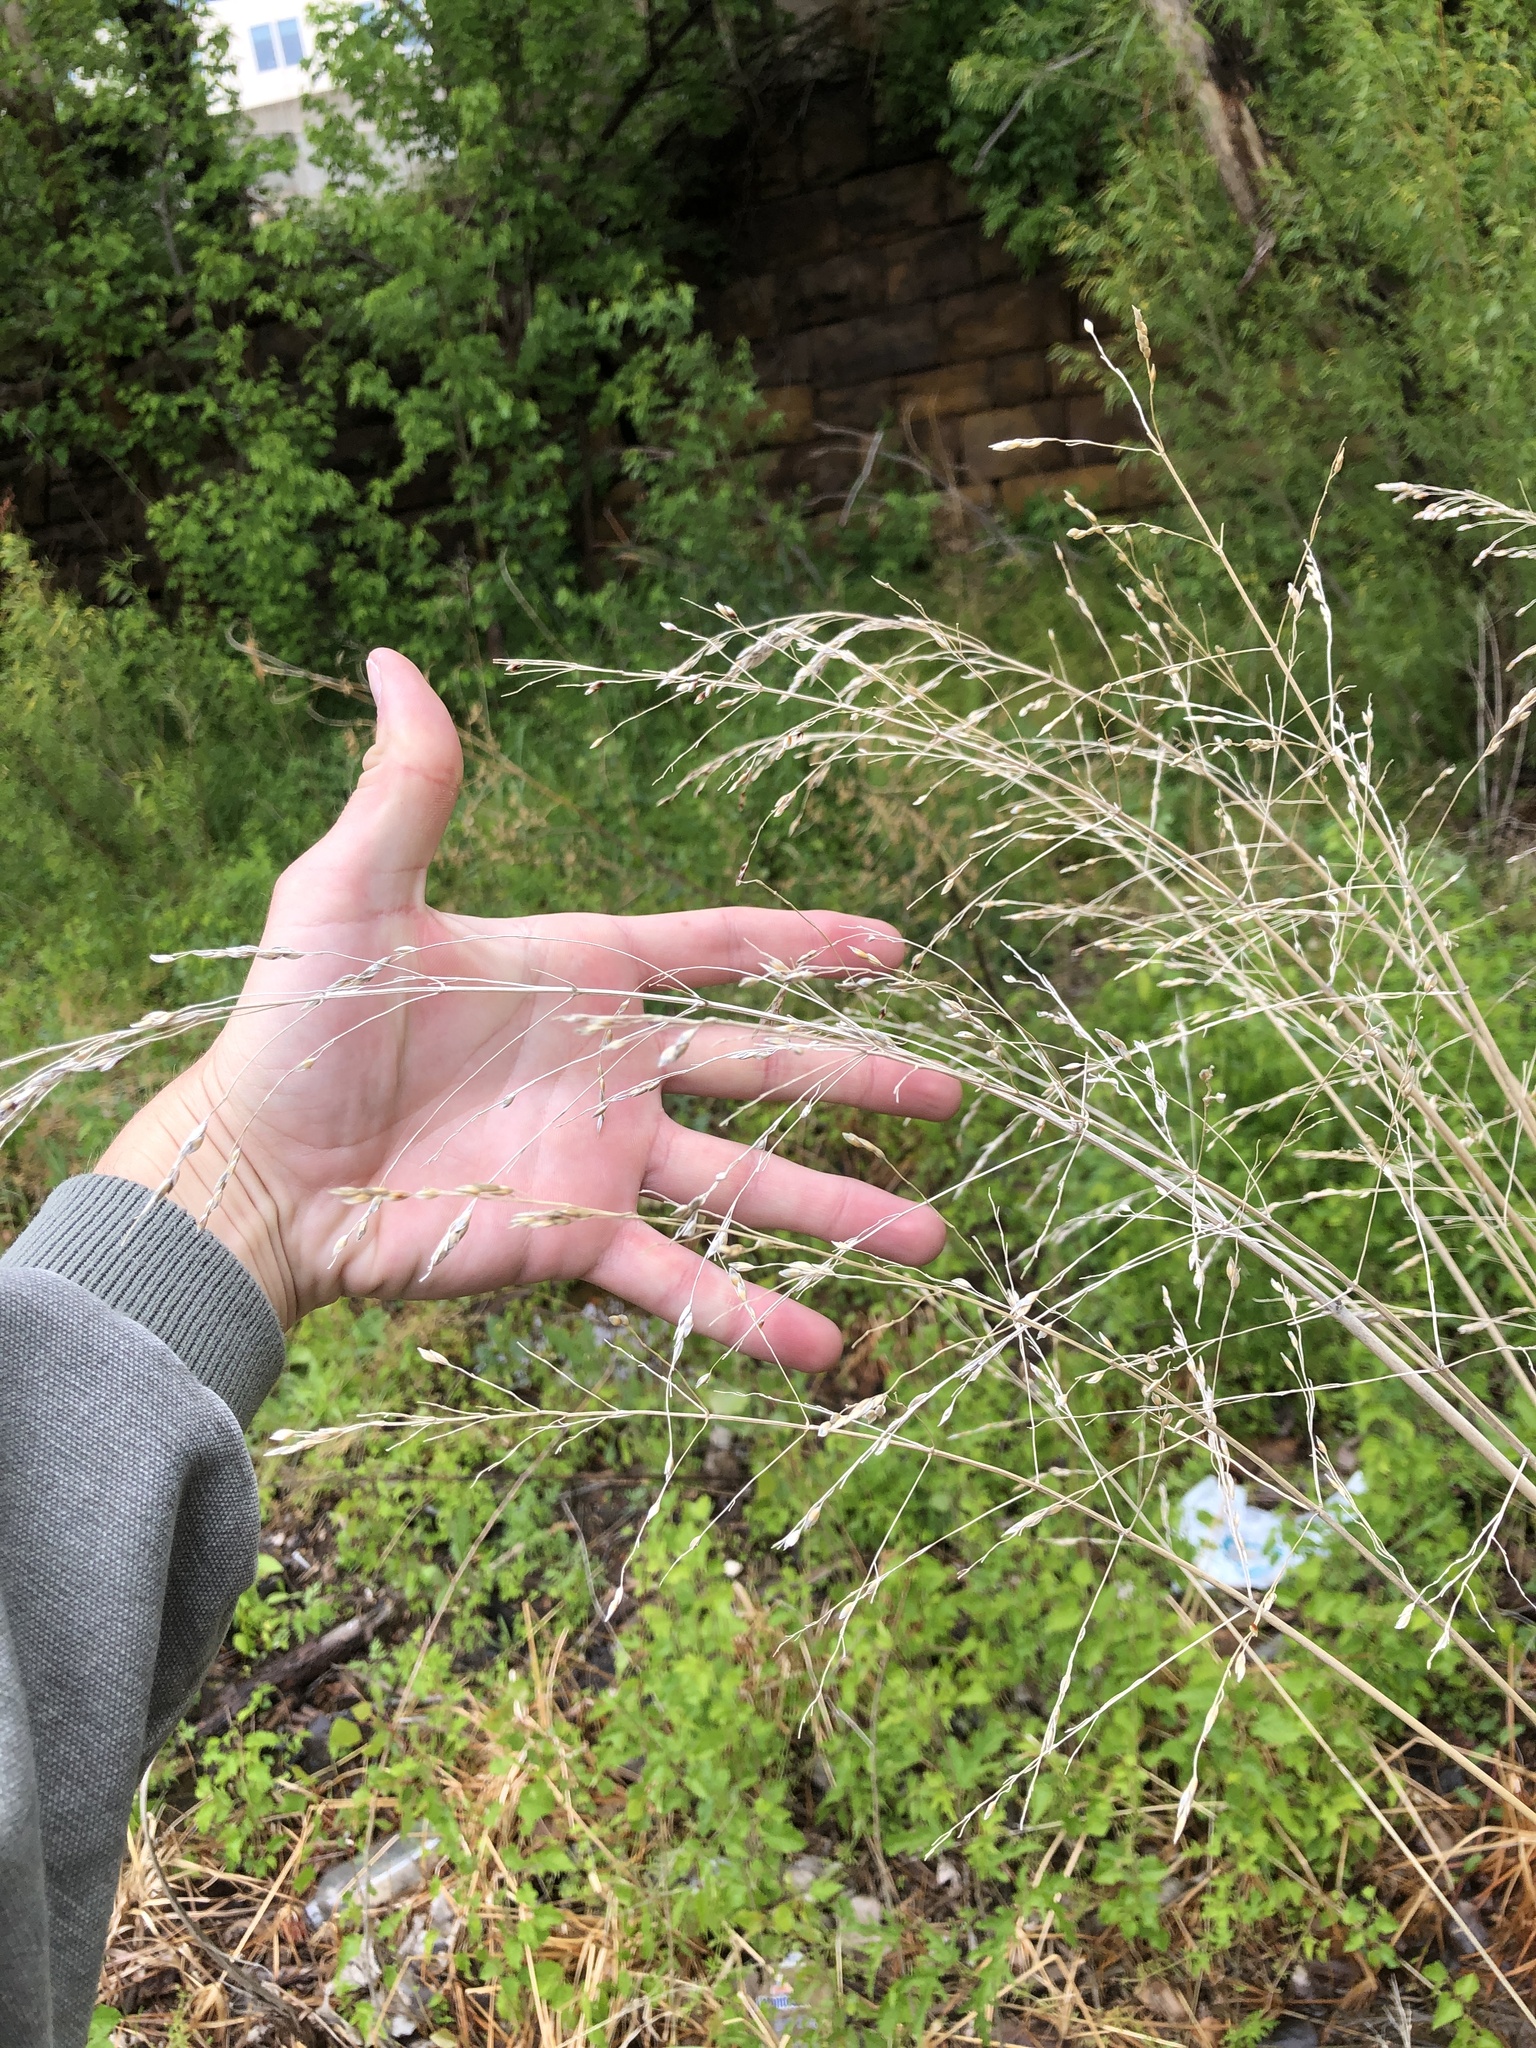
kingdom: Plantae
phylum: Tracheophyta
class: Liliopsida
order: Poales
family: Poaceae
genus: Sorghum
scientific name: Sorghum halepense
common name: Johnson-grass
